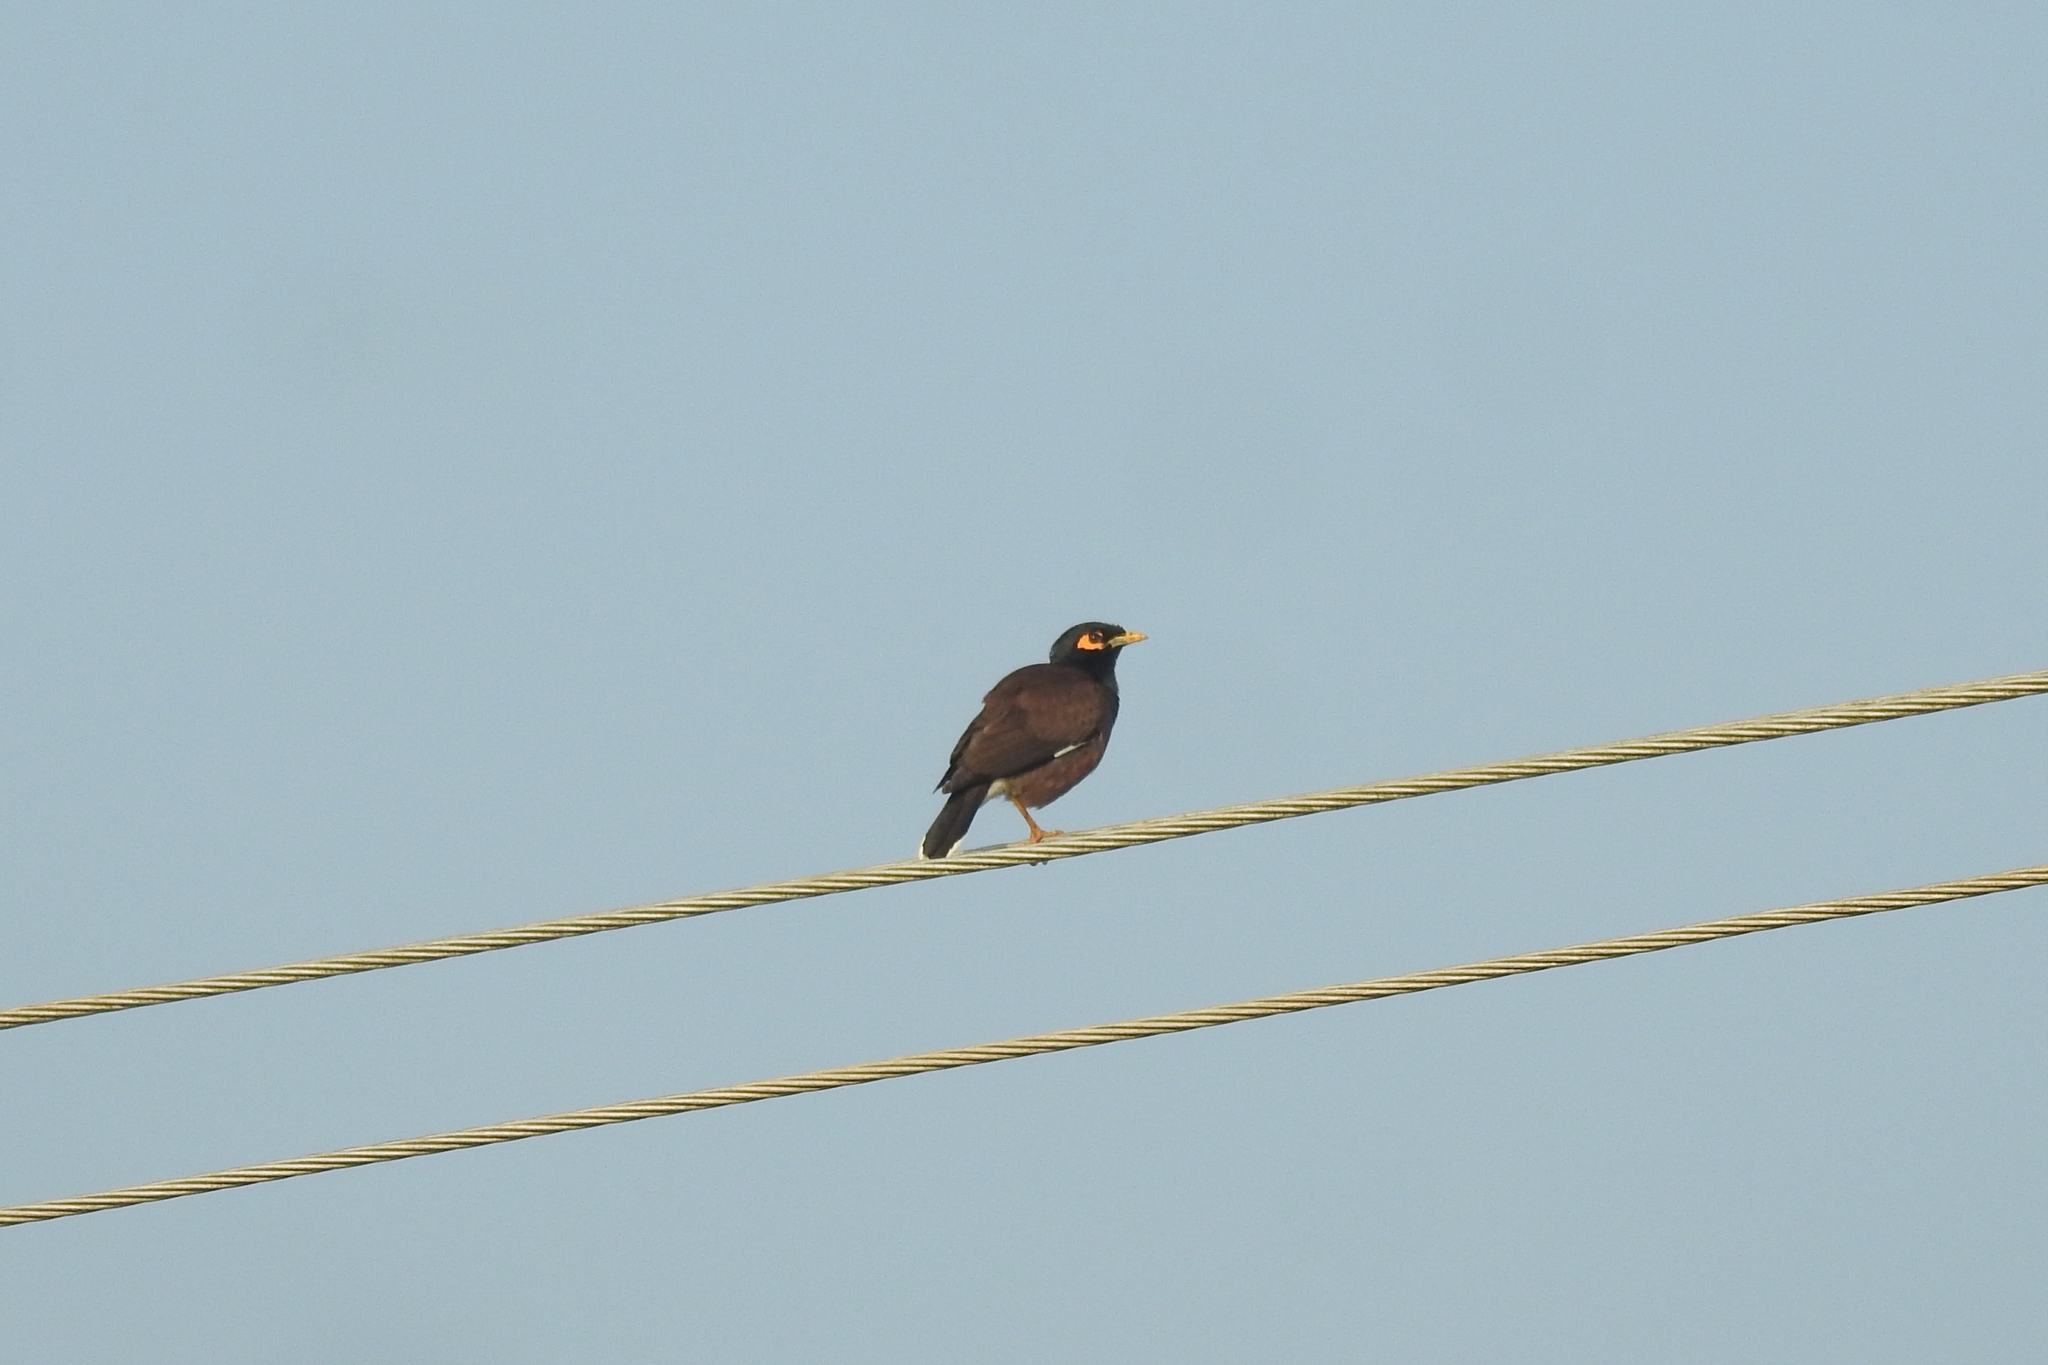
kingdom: Animalia
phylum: Chordata
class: Aves
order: Passeriformes
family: Sturnidae
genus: Acridotheres
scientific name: Acridotheres tristis
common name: Common myna
